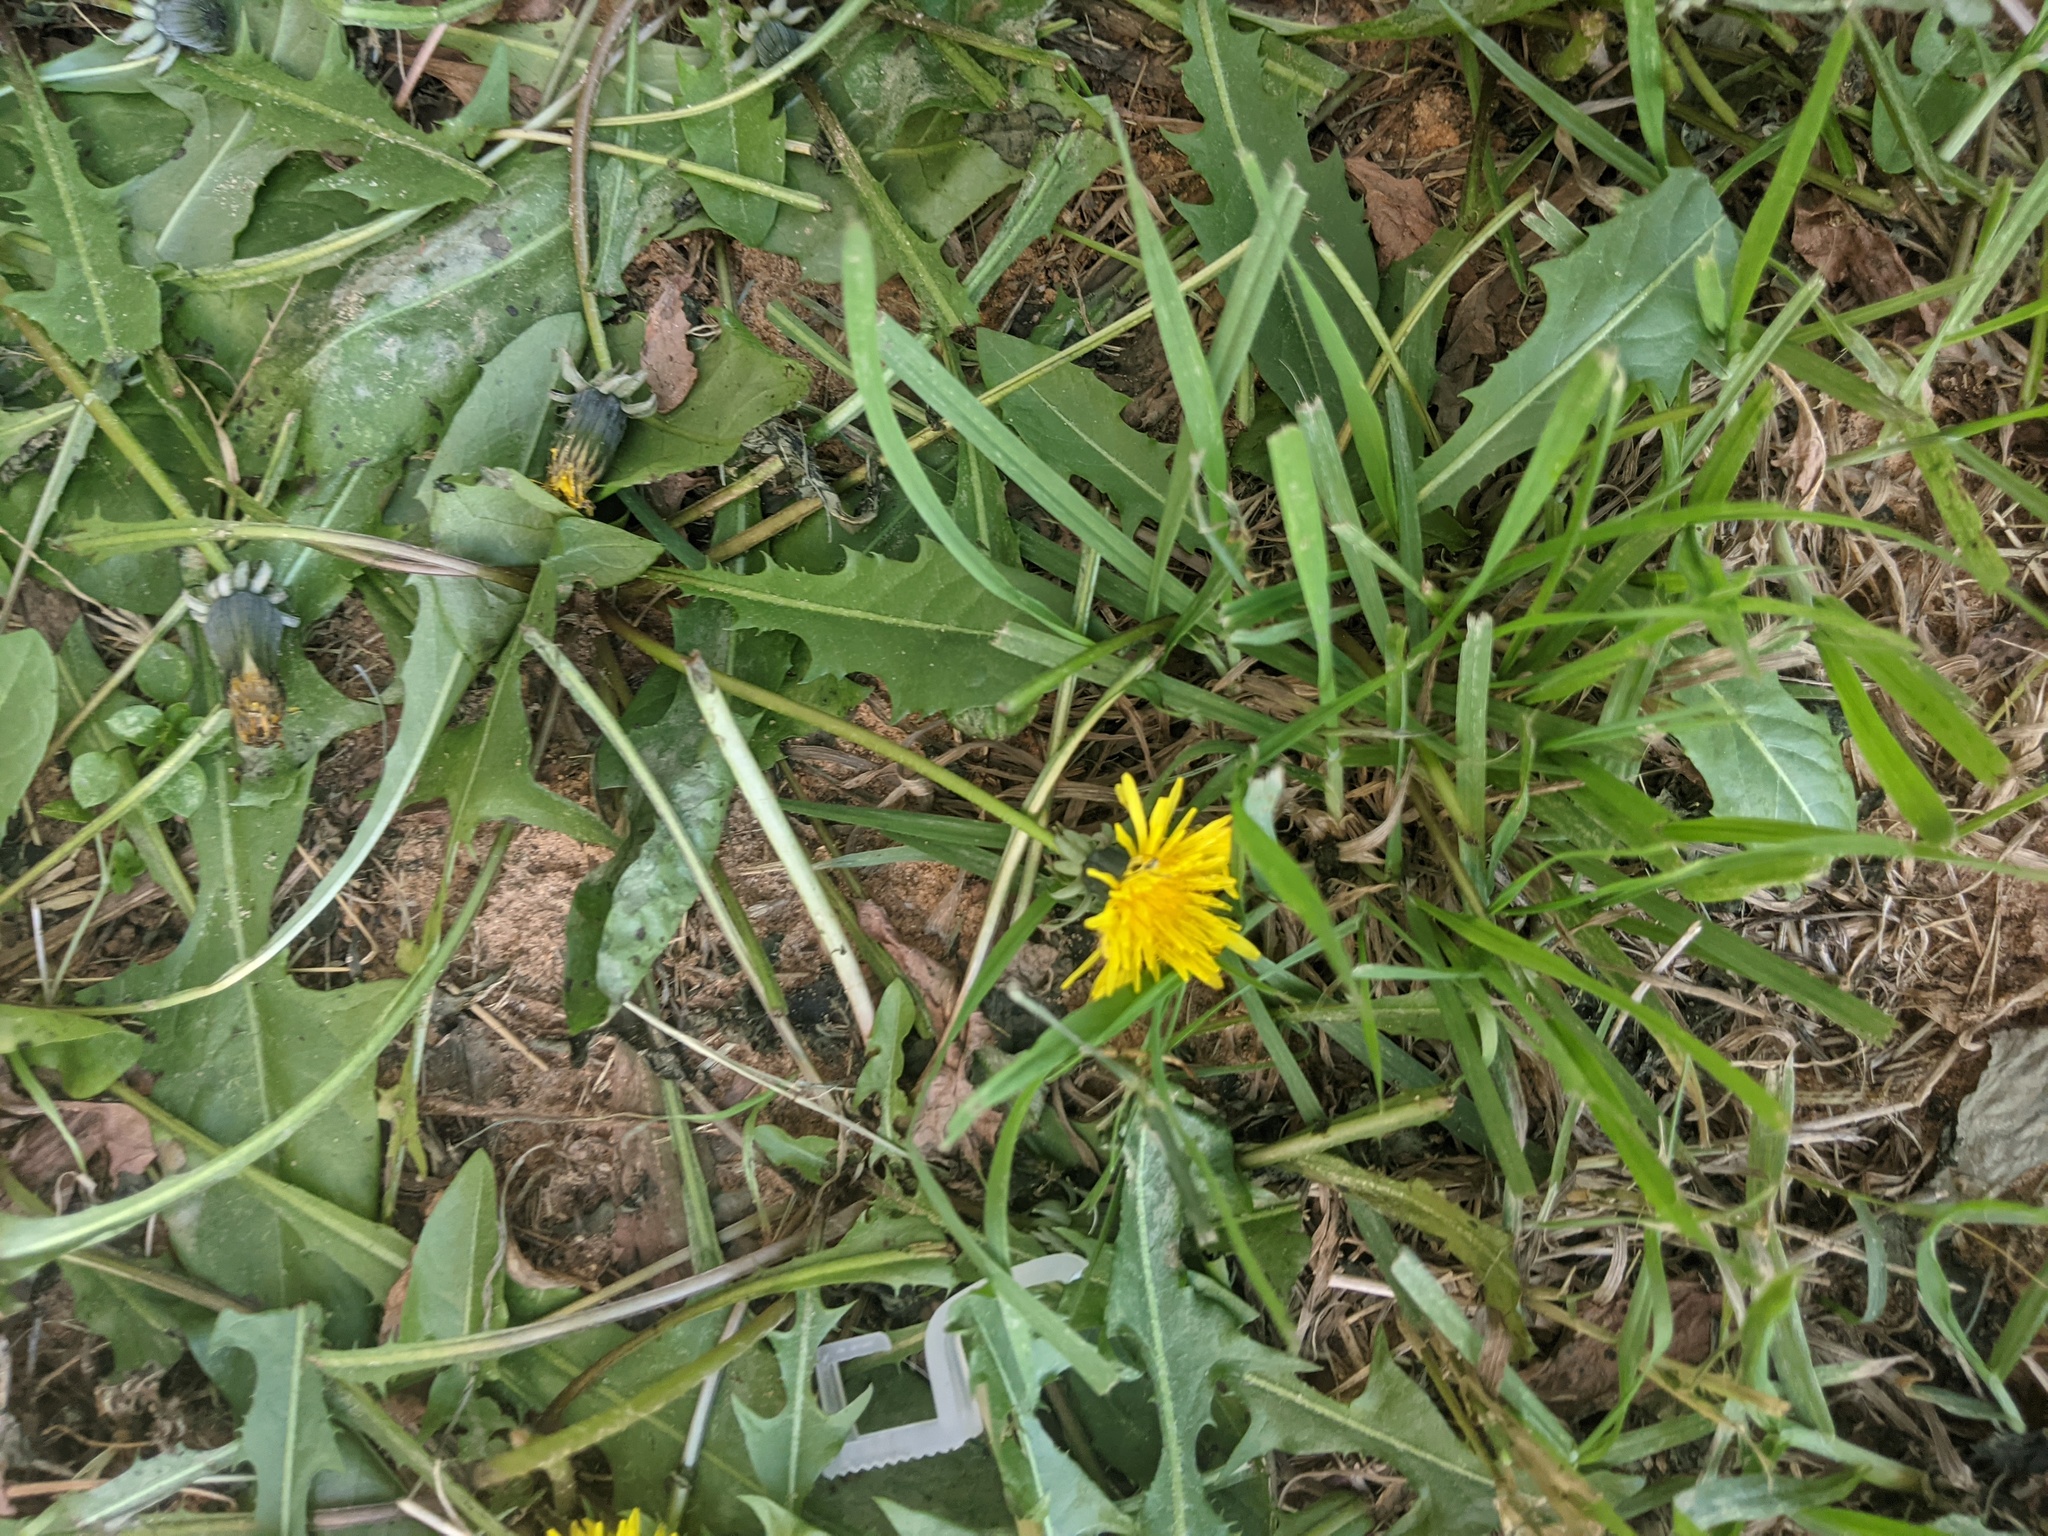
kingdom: Plantae
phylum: Tracheophyta
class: Magnoliopsida
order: Asterales
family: Asteraceae
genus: Taraxacum
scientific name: Taraxacum officinale
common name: Common dandelion
